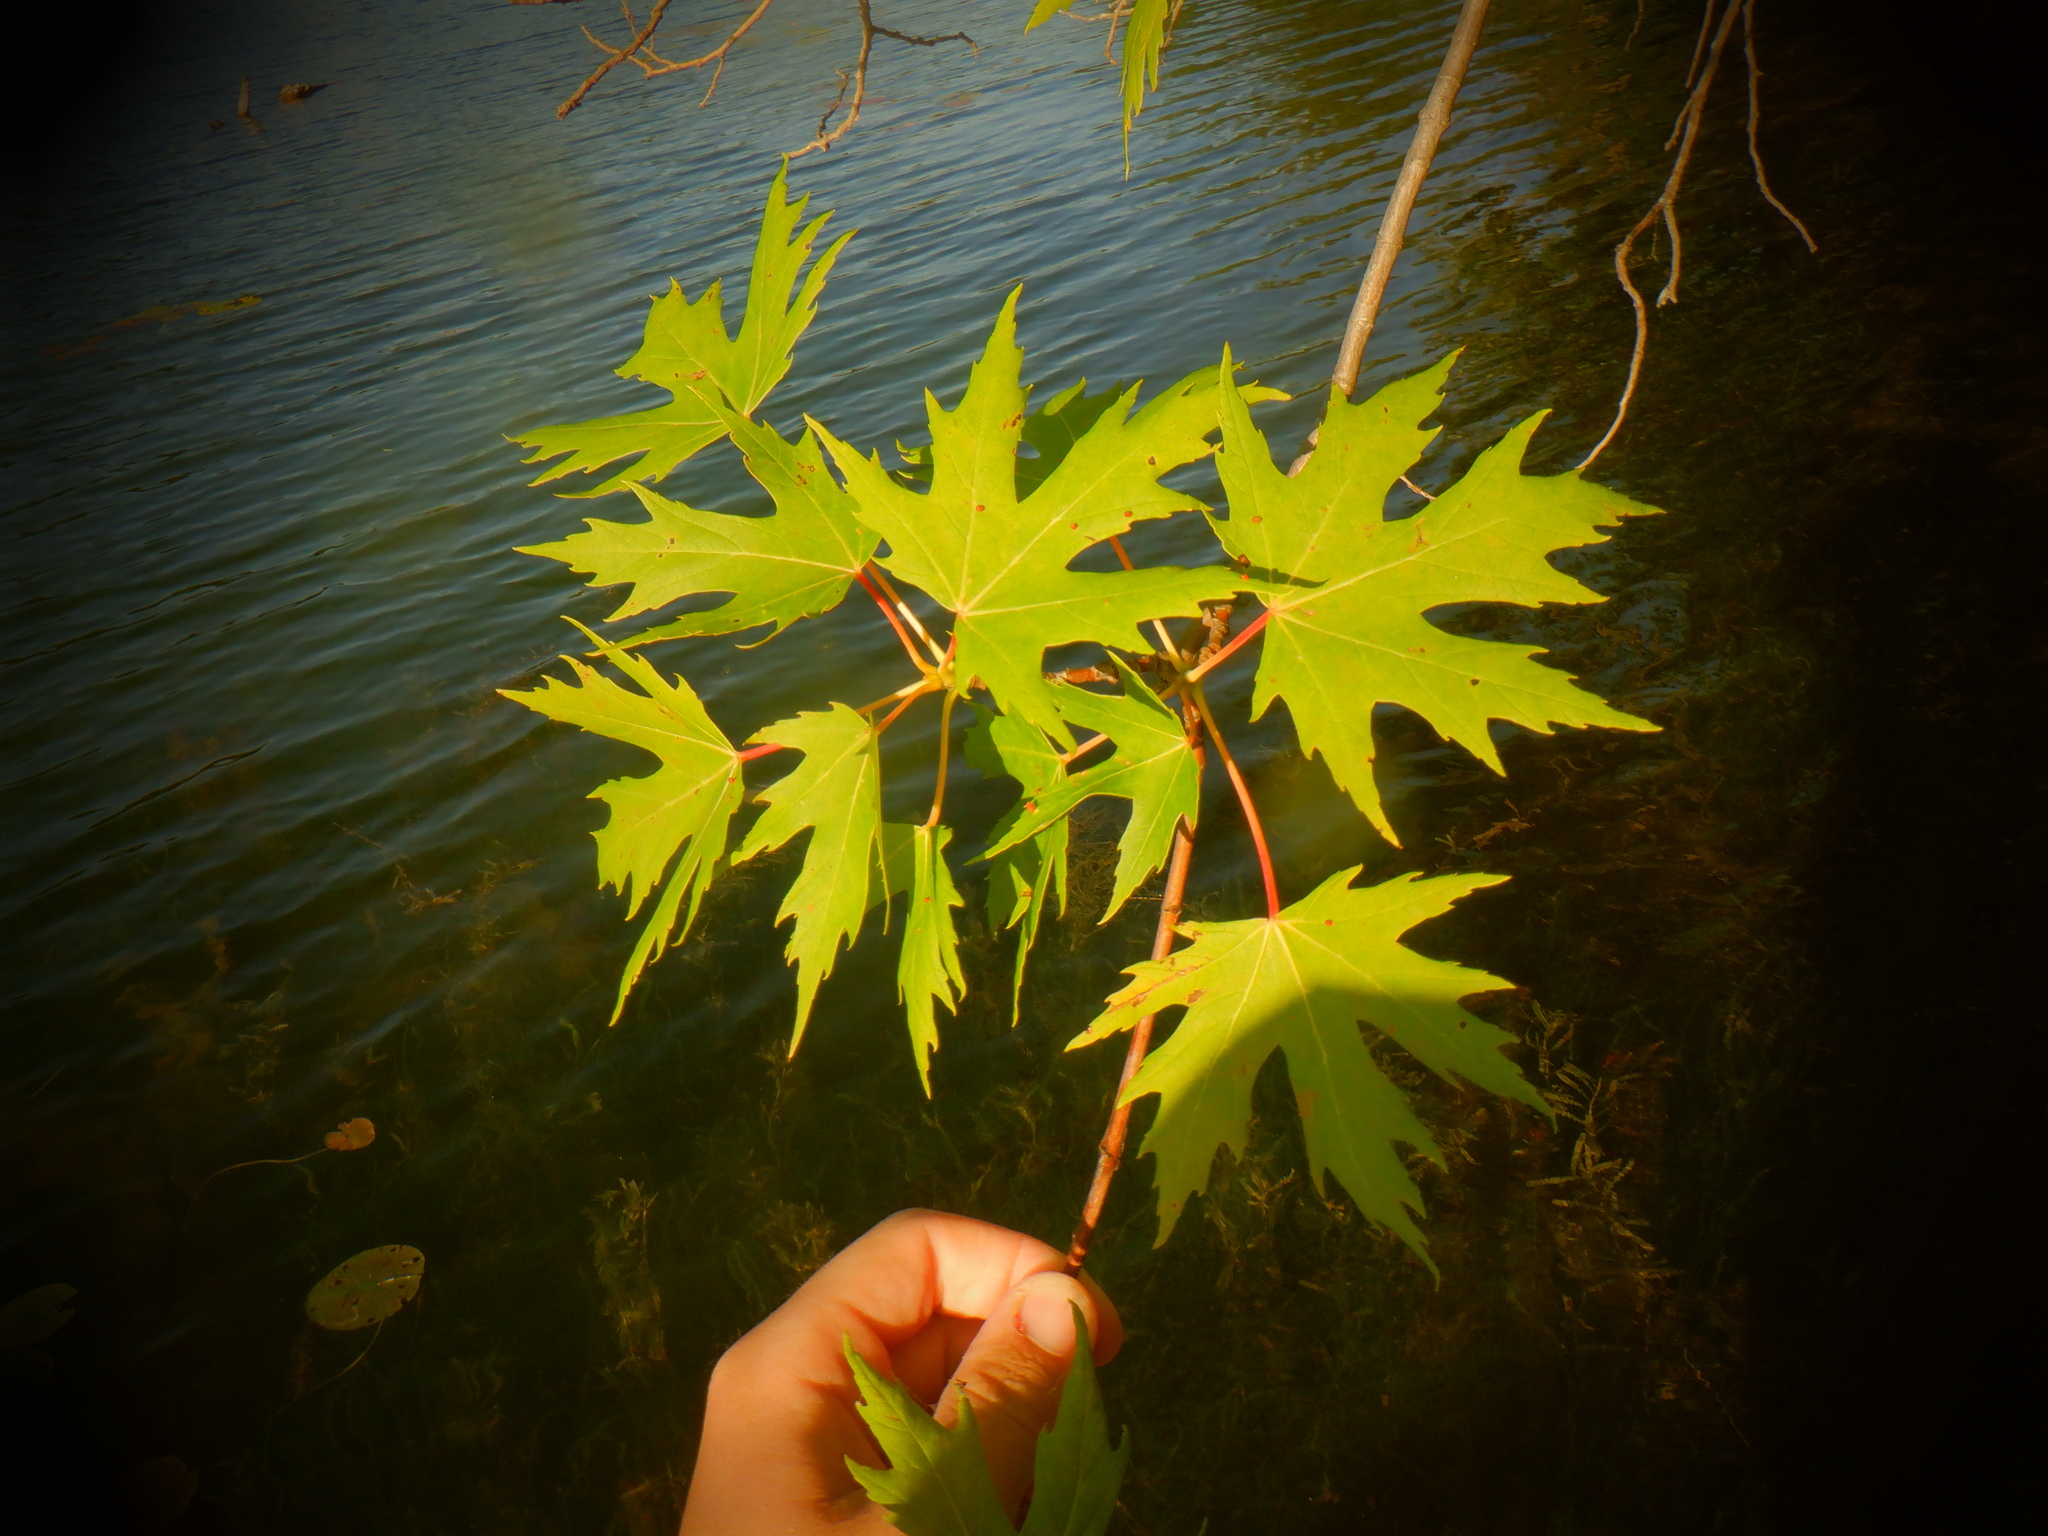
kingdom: Plantae
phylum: Tracheophyta
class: Magnoliopsida
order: Sapindales
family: Sapindaceae
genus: Acer
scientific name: Acer saccharinum
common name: Silver maple
